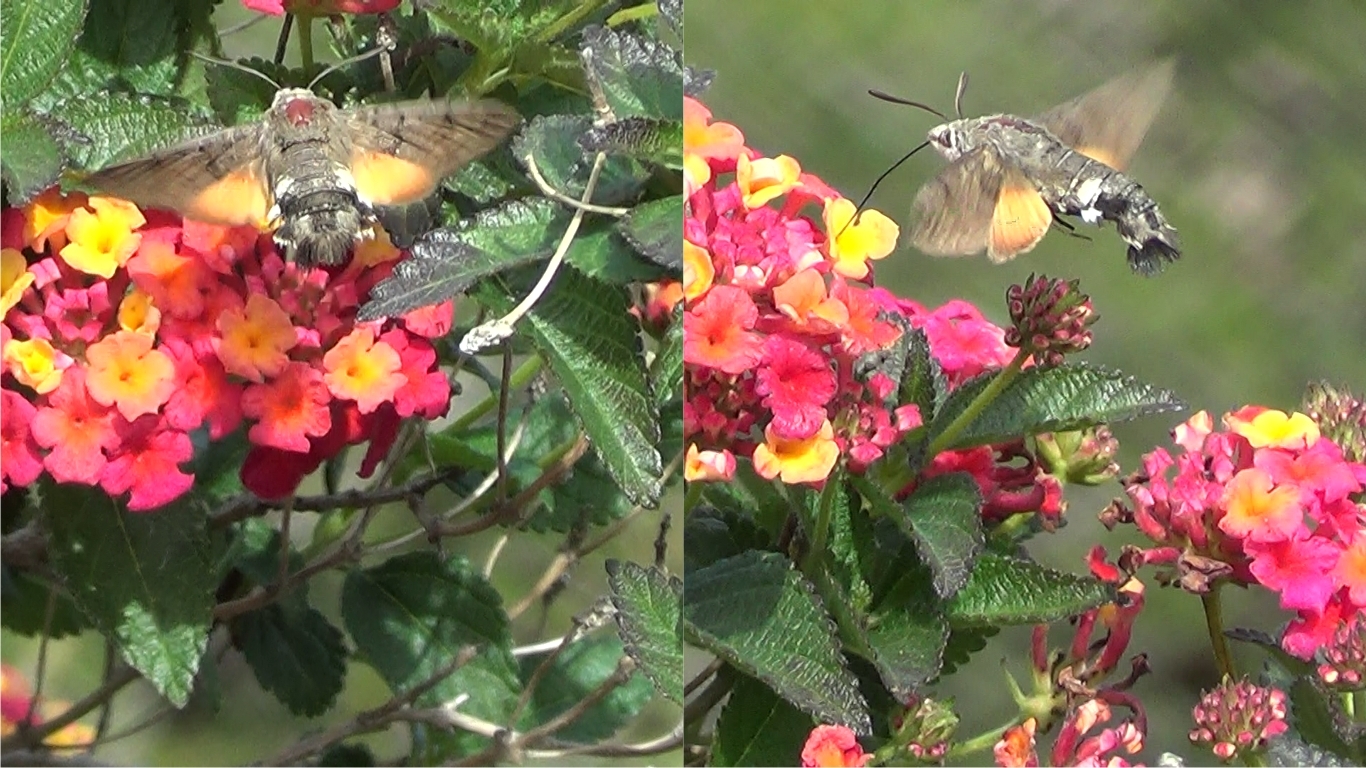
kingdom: Animalia
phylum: Arthropoda
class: Insecta
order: Lepidoptera
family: Sphingidae
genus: Macroglossum
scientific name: Macroglossum stellatarum
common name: Humming-bird hawk-moth
